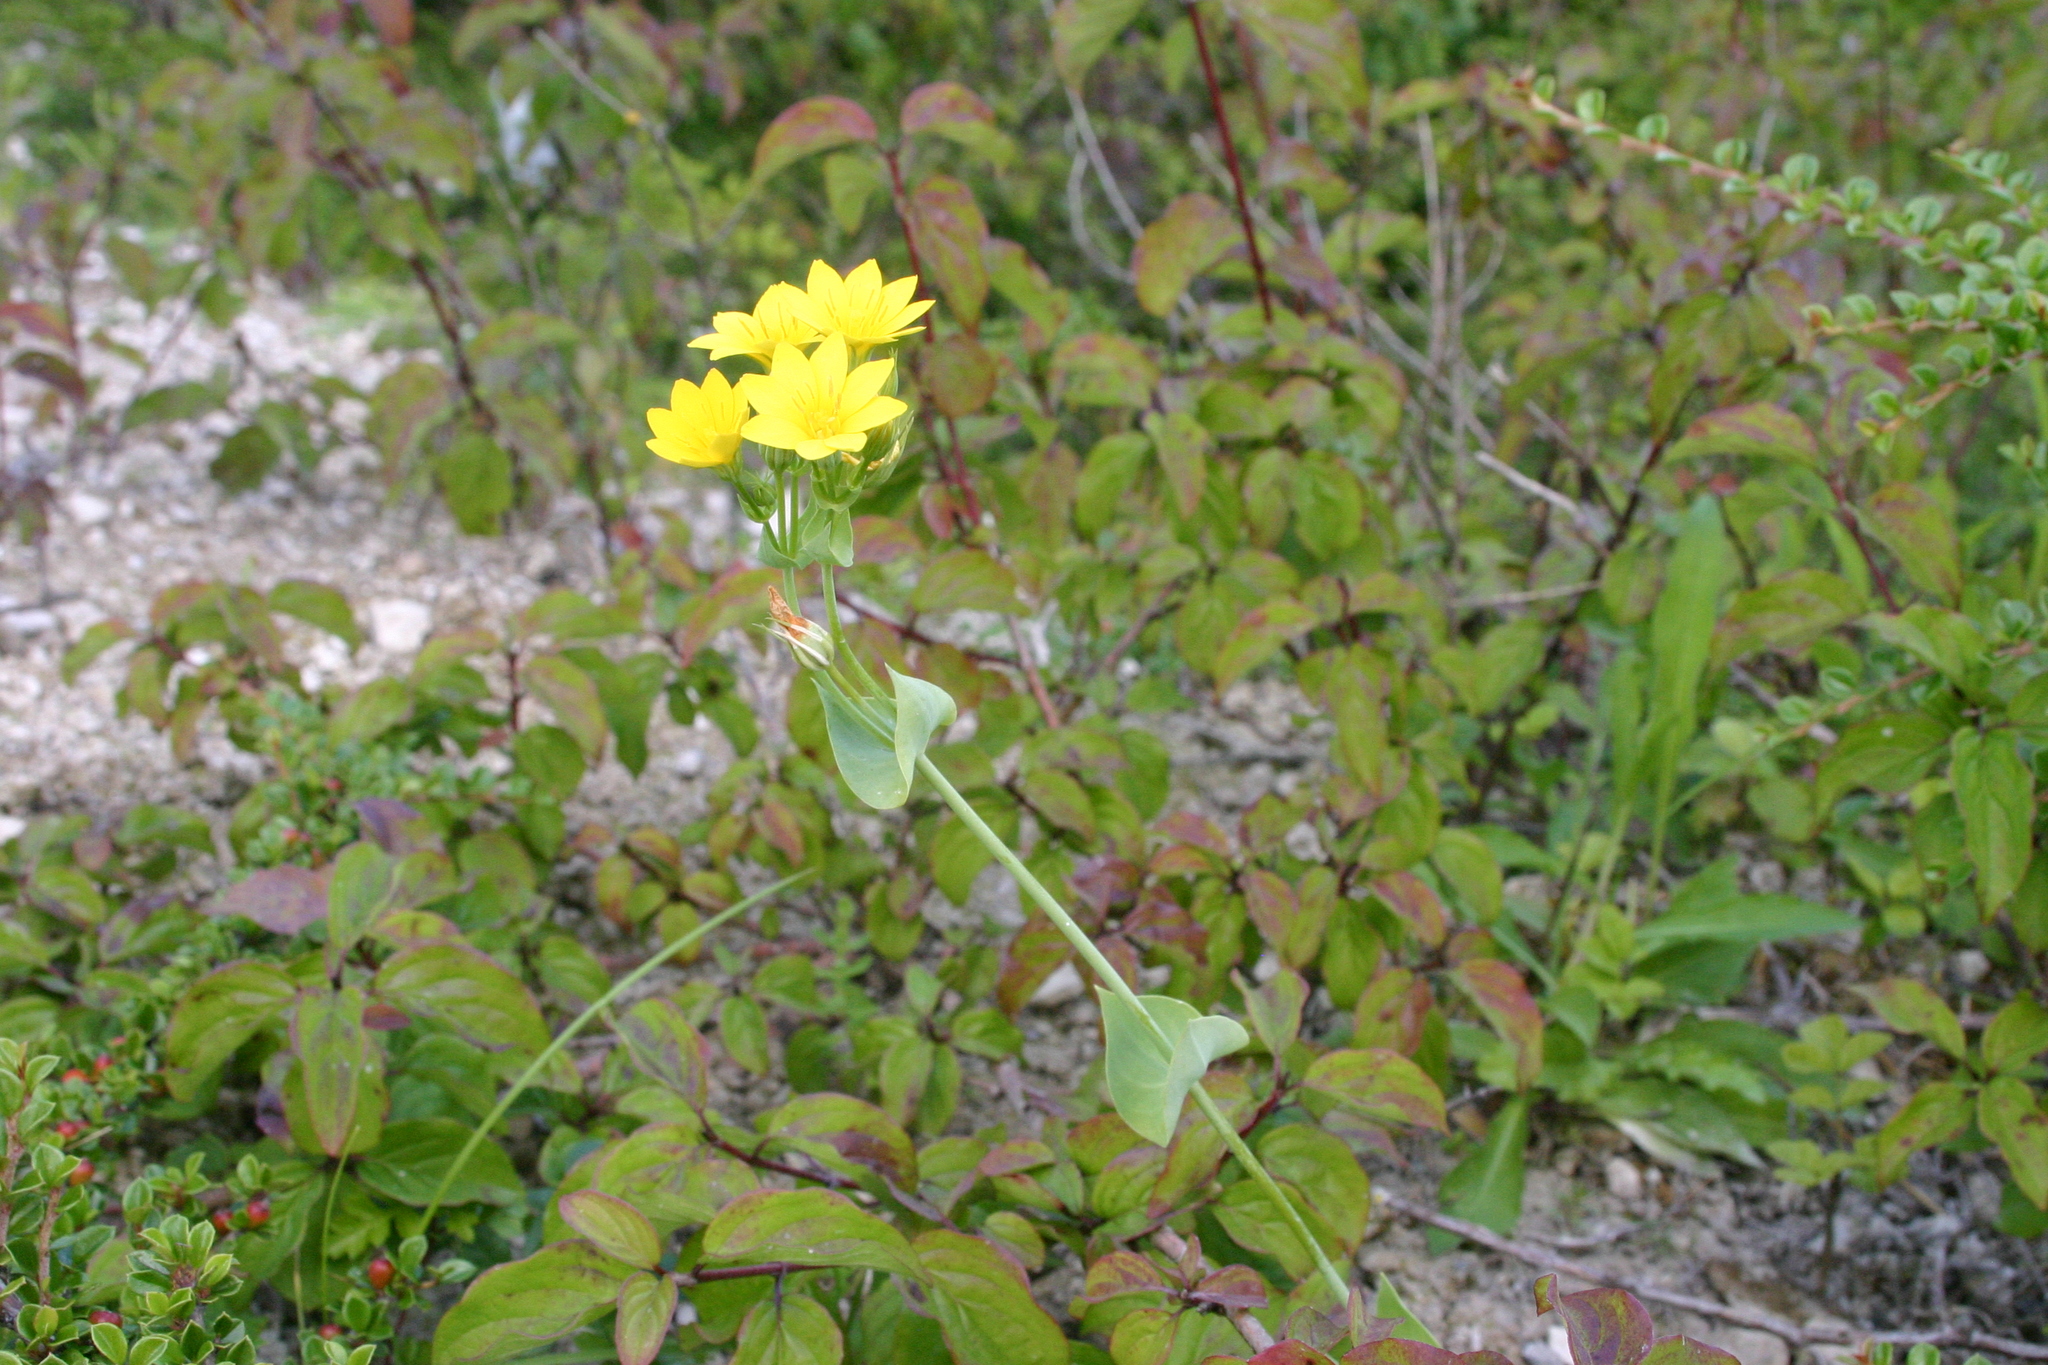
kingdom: Plantae
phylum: Tracheophyta
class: Magnoliopsida
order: Gentianales
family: Gentianaceae
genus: Blackstonia
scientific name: Blackstonia perfoliata
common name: Yellow-wort
